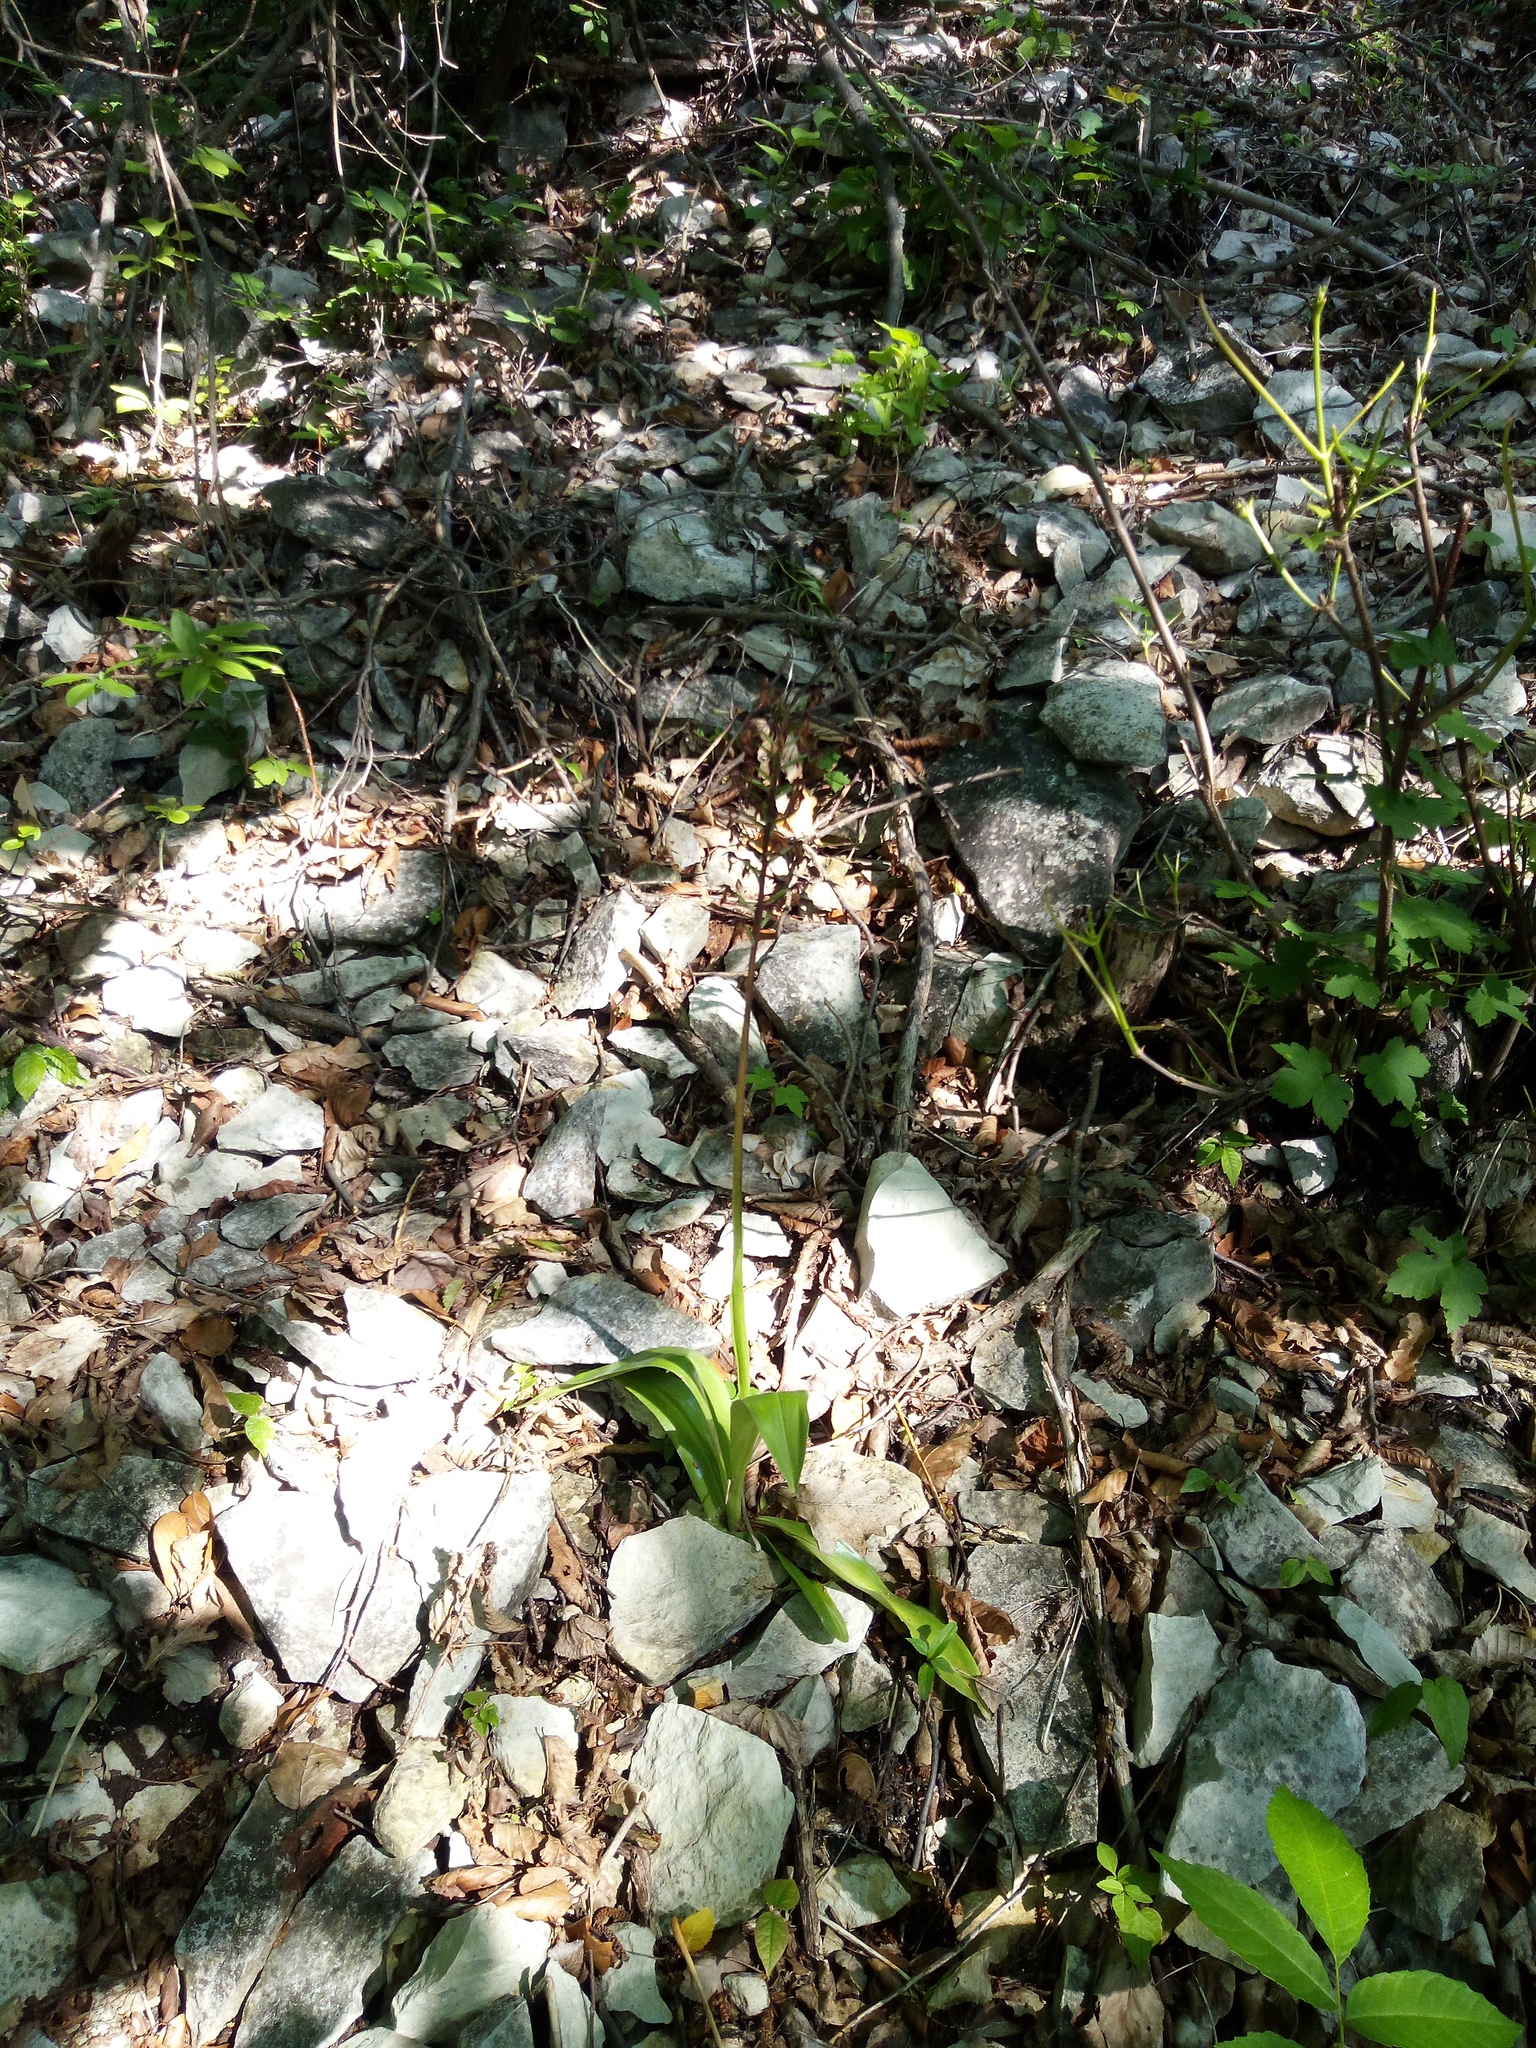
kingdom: Plantae
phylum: Tracheophyta
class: Liliopsida
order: Asparagales
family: Orchidaceae
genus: Orchis
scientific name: Orchis purpurea
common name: Lady orchid
